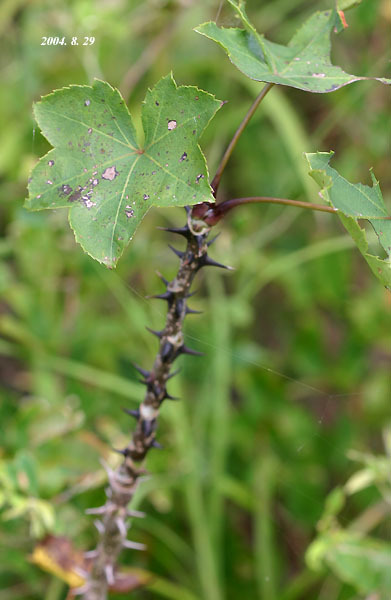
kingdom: Plantae
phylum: Tracheophyta
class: Magnoliopsida
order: Apiales
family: Araliaceae
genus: Kalopanax
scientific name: Kalopanax septemlobus
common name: Castor aralia
